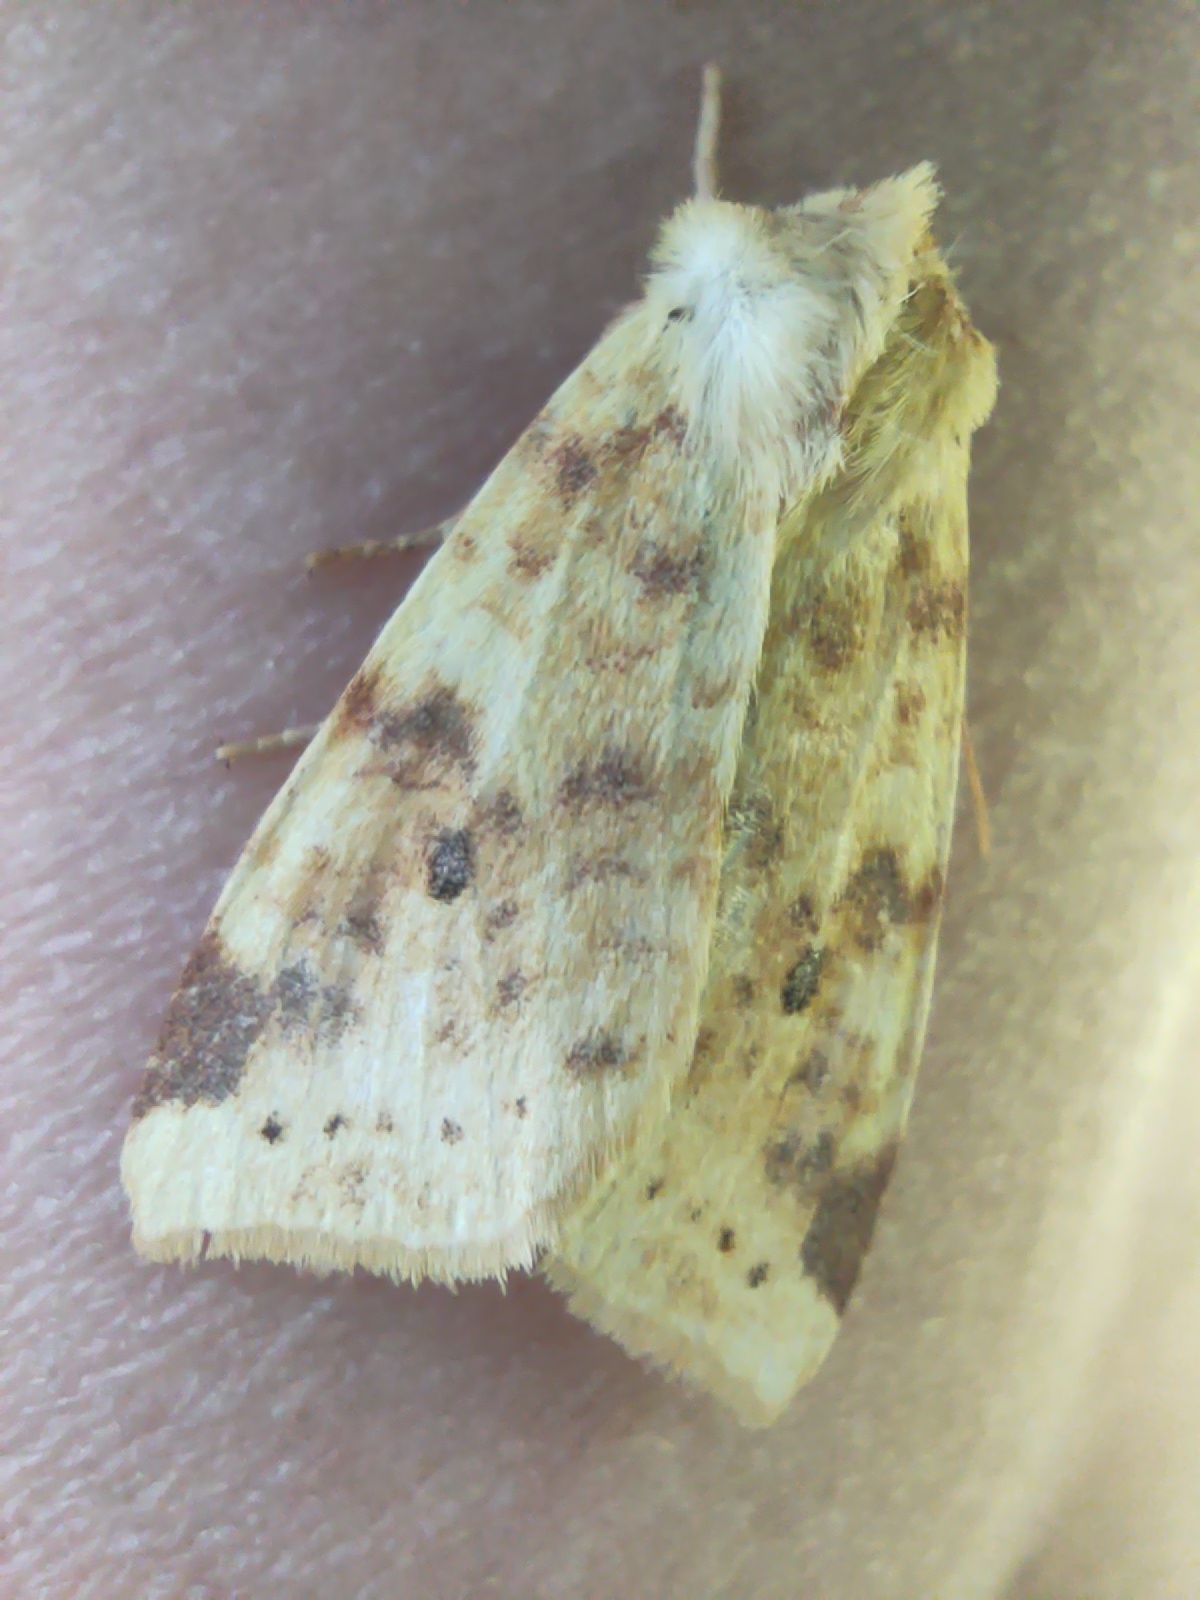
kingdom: Animalia
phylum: Arthropoda
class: Insecta
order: Lepidoptera
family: Noctuidae
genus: Xanthia
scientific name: Xanthia icteritia
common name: The sallow
